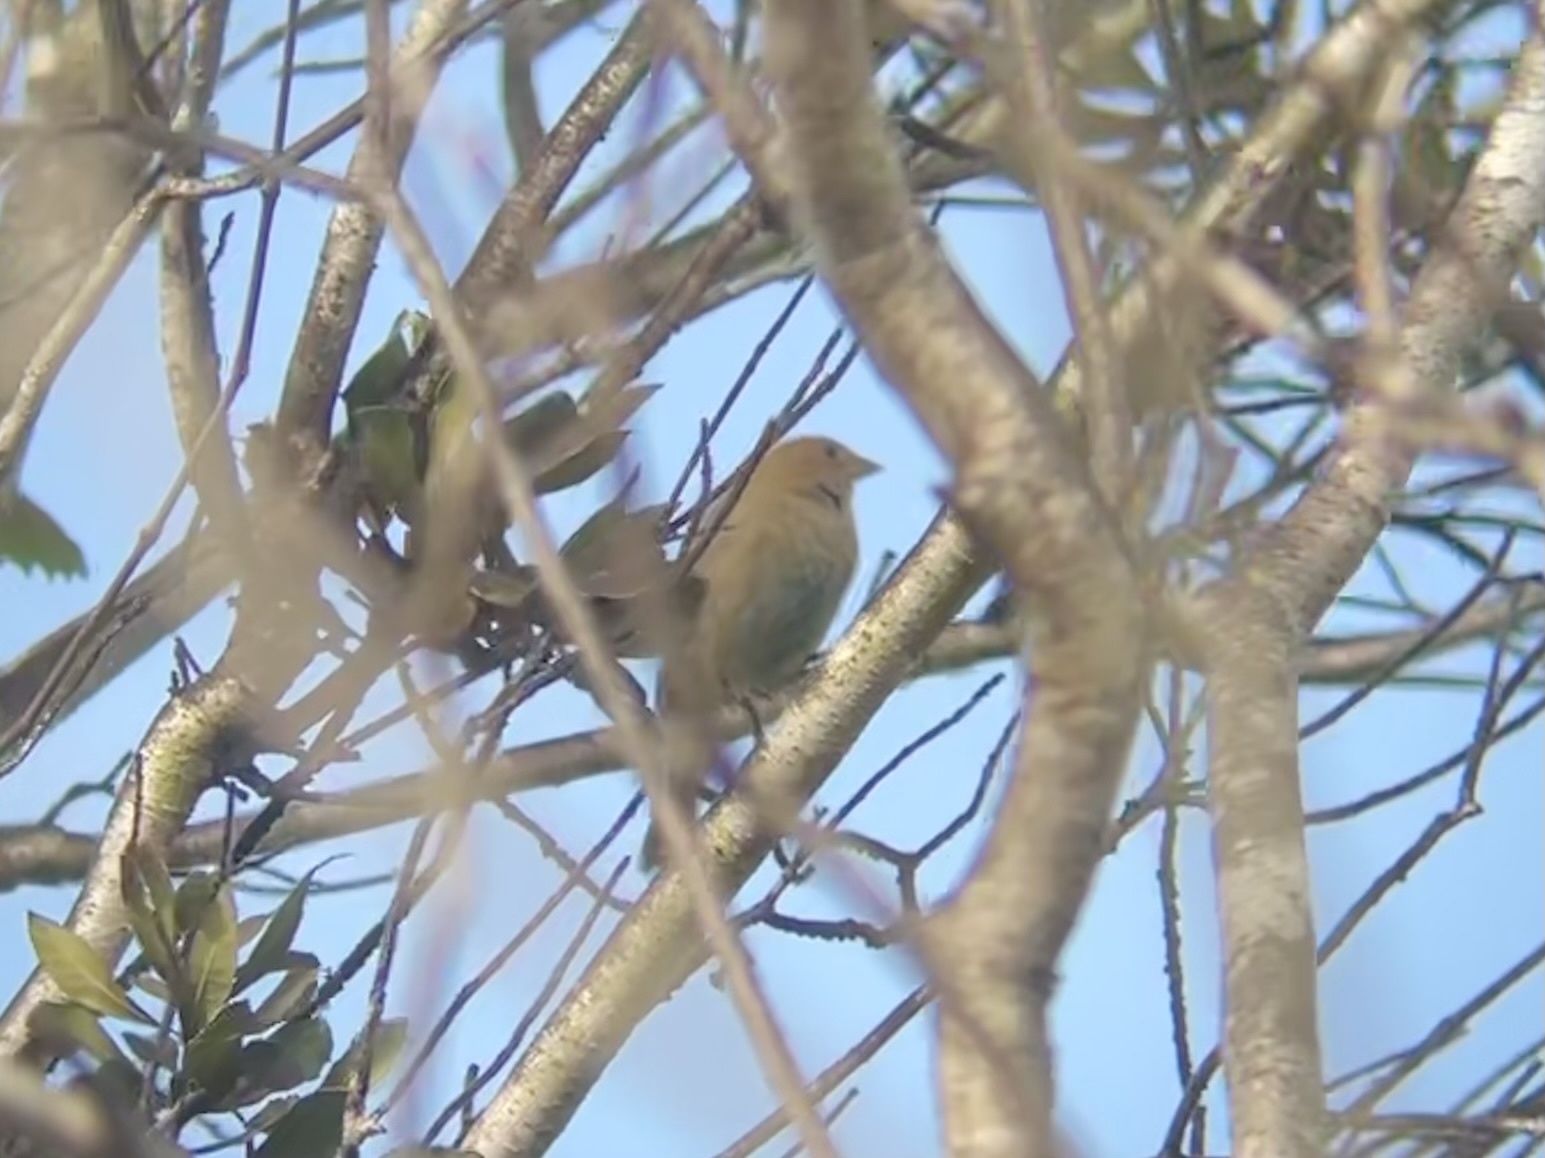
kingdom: Animalia
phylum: Chordata
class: Aves
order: Passeriformes
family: Cardinalidae
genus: Passerina
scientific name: Passerina cyanea
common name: Indigo bunting
